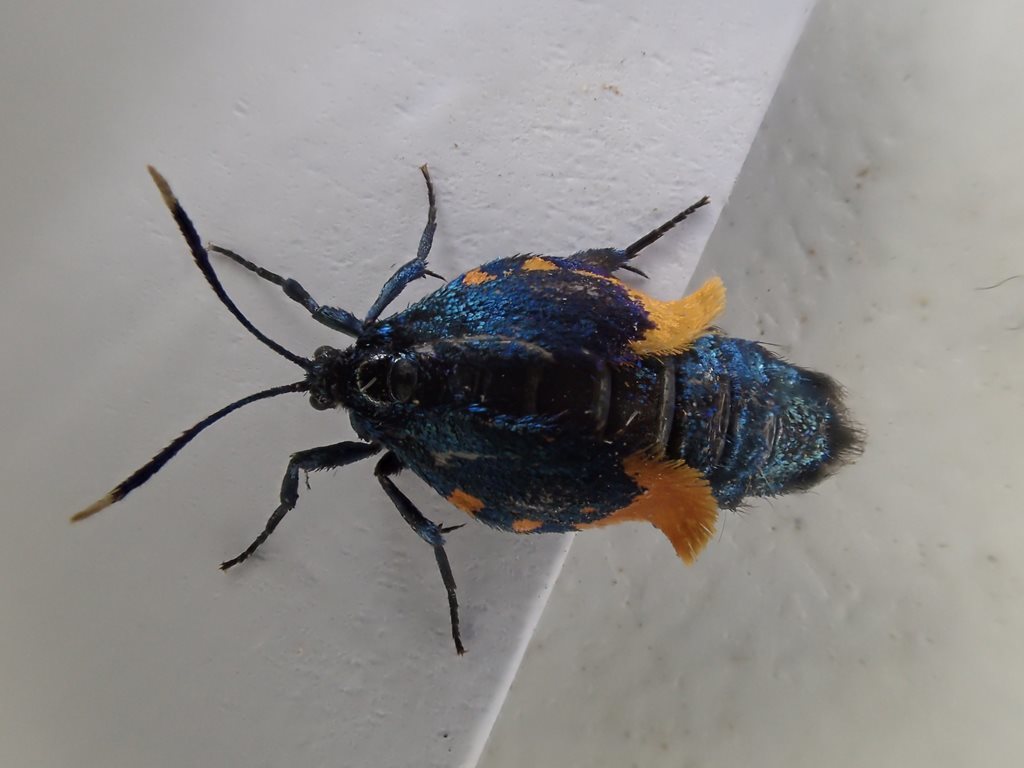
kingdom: Animalia
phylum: Arthropoda
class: Insecta
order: Lepidoptera
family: Psychidae
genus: Cebysa
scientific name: Cebysa leucotelus
